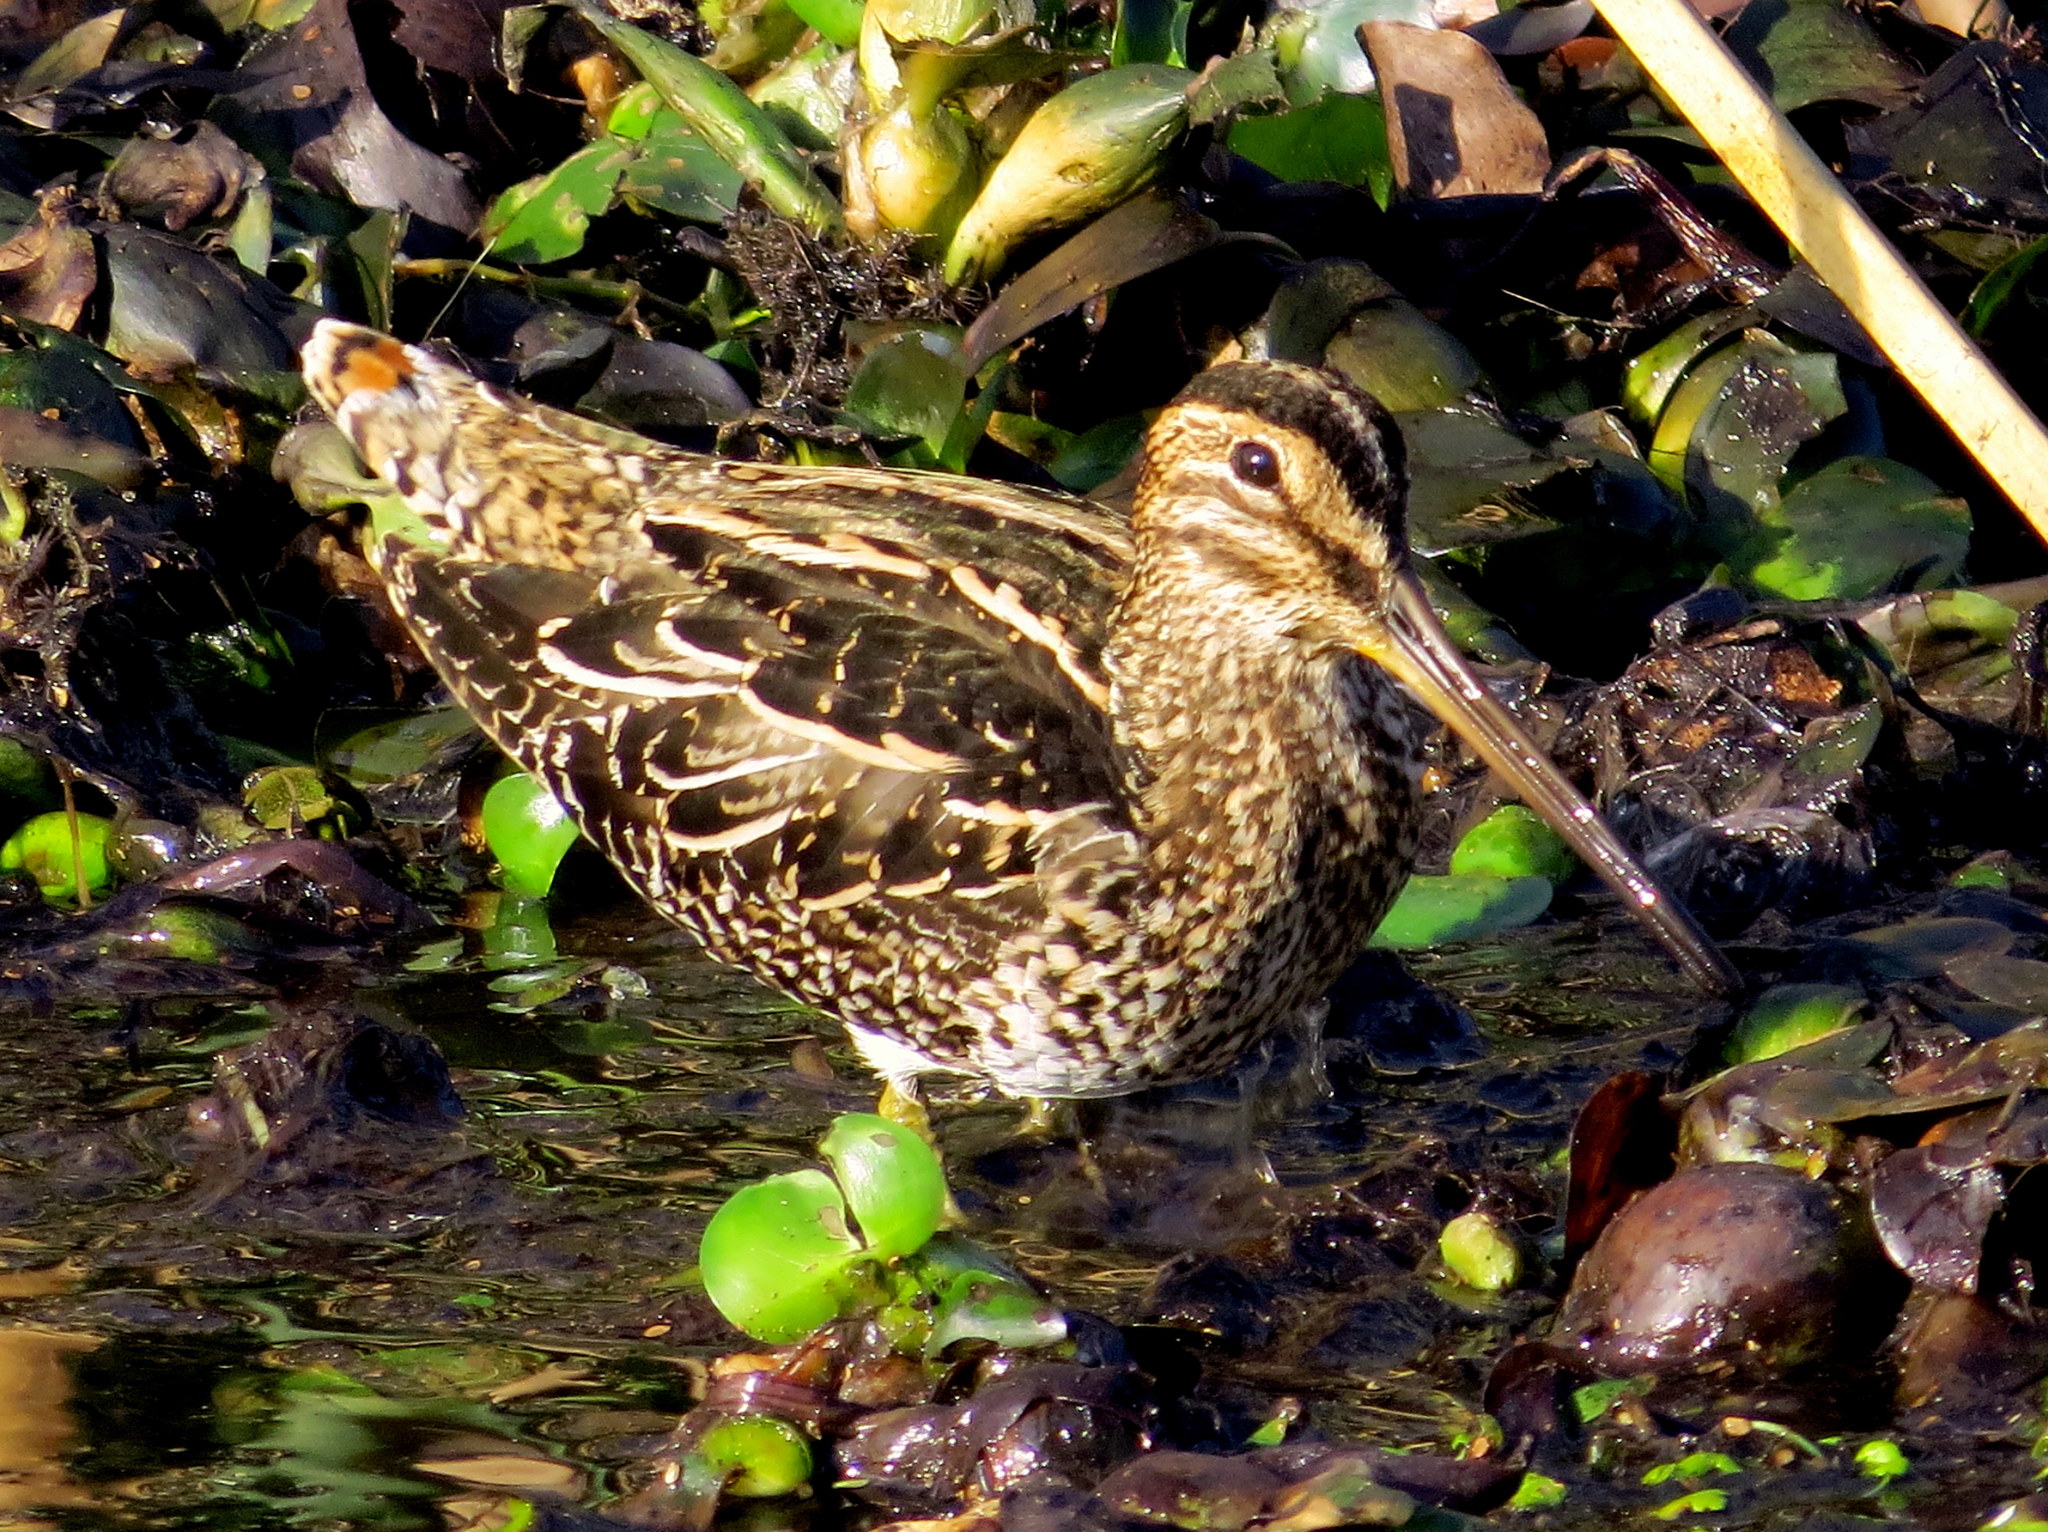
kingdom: Animalia
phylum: Chordata
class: Aves
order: Charadriiformes
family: Scolopacidae
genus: Gallinago
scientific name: Gallinago paraguaiae
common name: South american snipe
